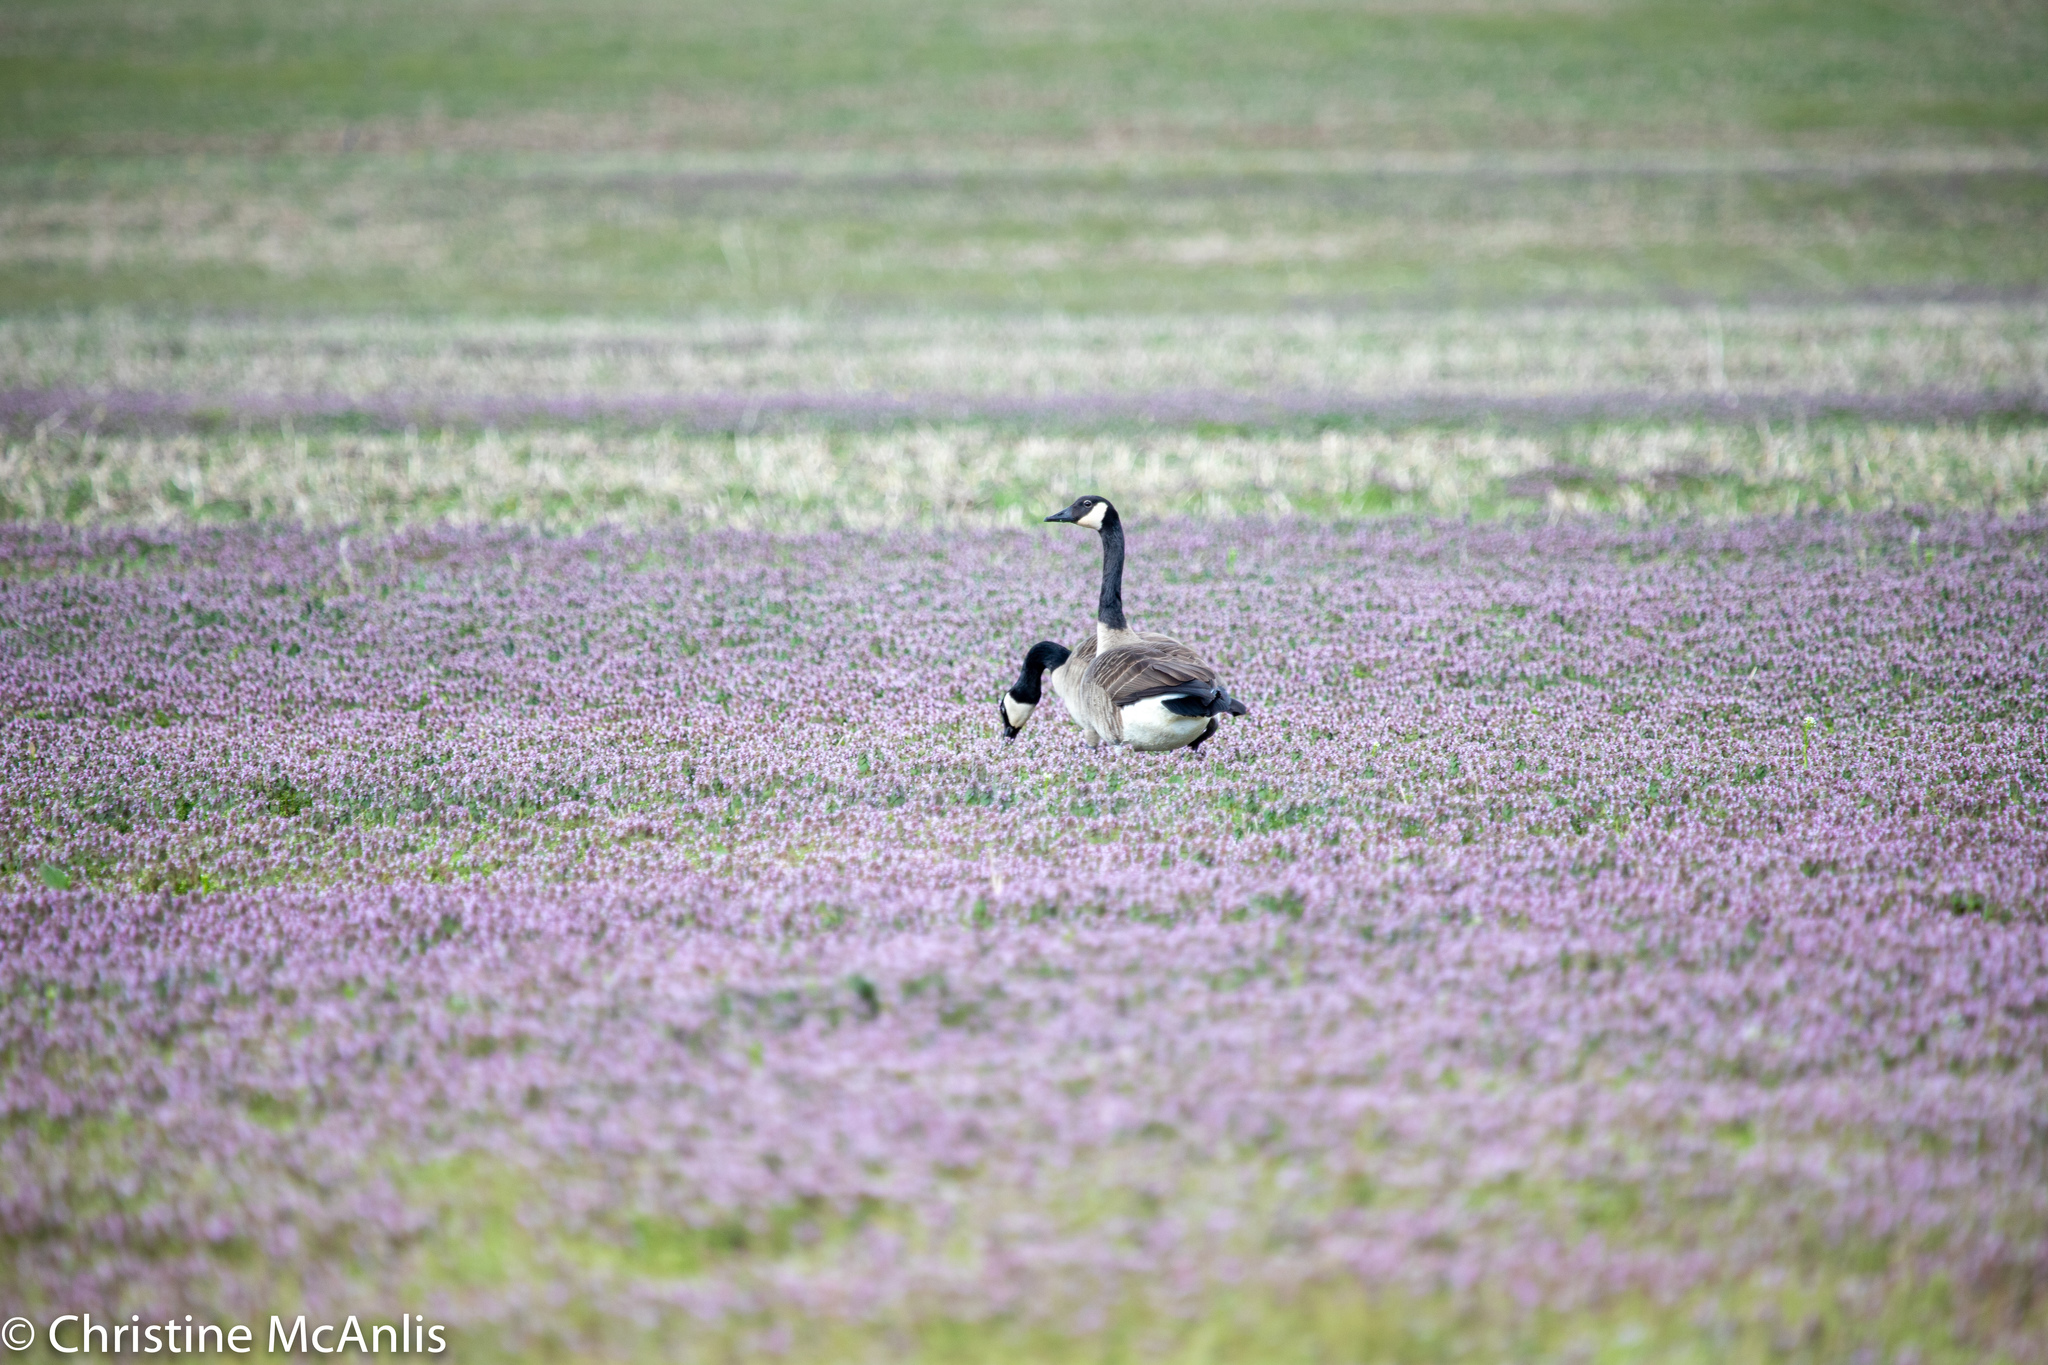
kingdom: Animalia
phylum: Chordata
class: Aves
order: Anseriformes
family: Anatidae
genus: Branta
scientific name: Branta canadensis
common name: Canada goose
